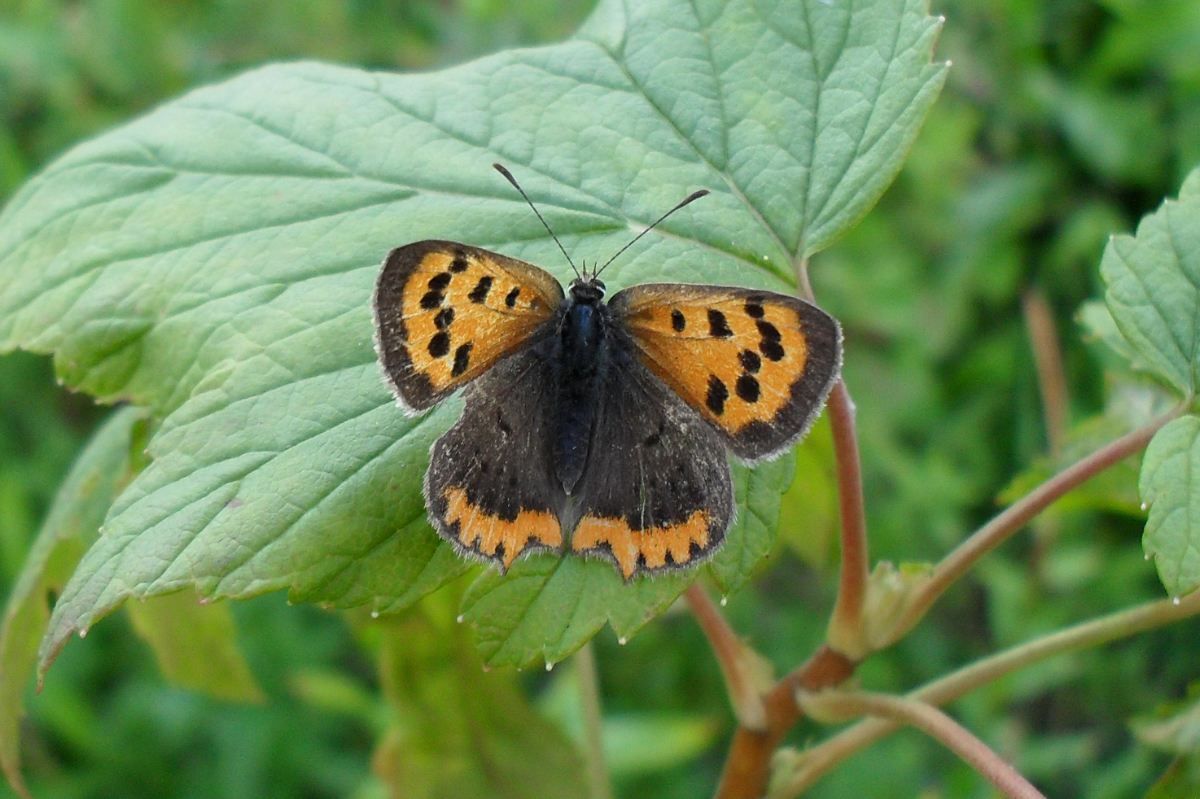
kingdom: Animalia
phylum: Arthropoda
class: Insecta
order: Lepidoptera
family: Lycaenidae
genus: Lycaena
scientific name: Lycaena phlaeas
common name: Small copper
